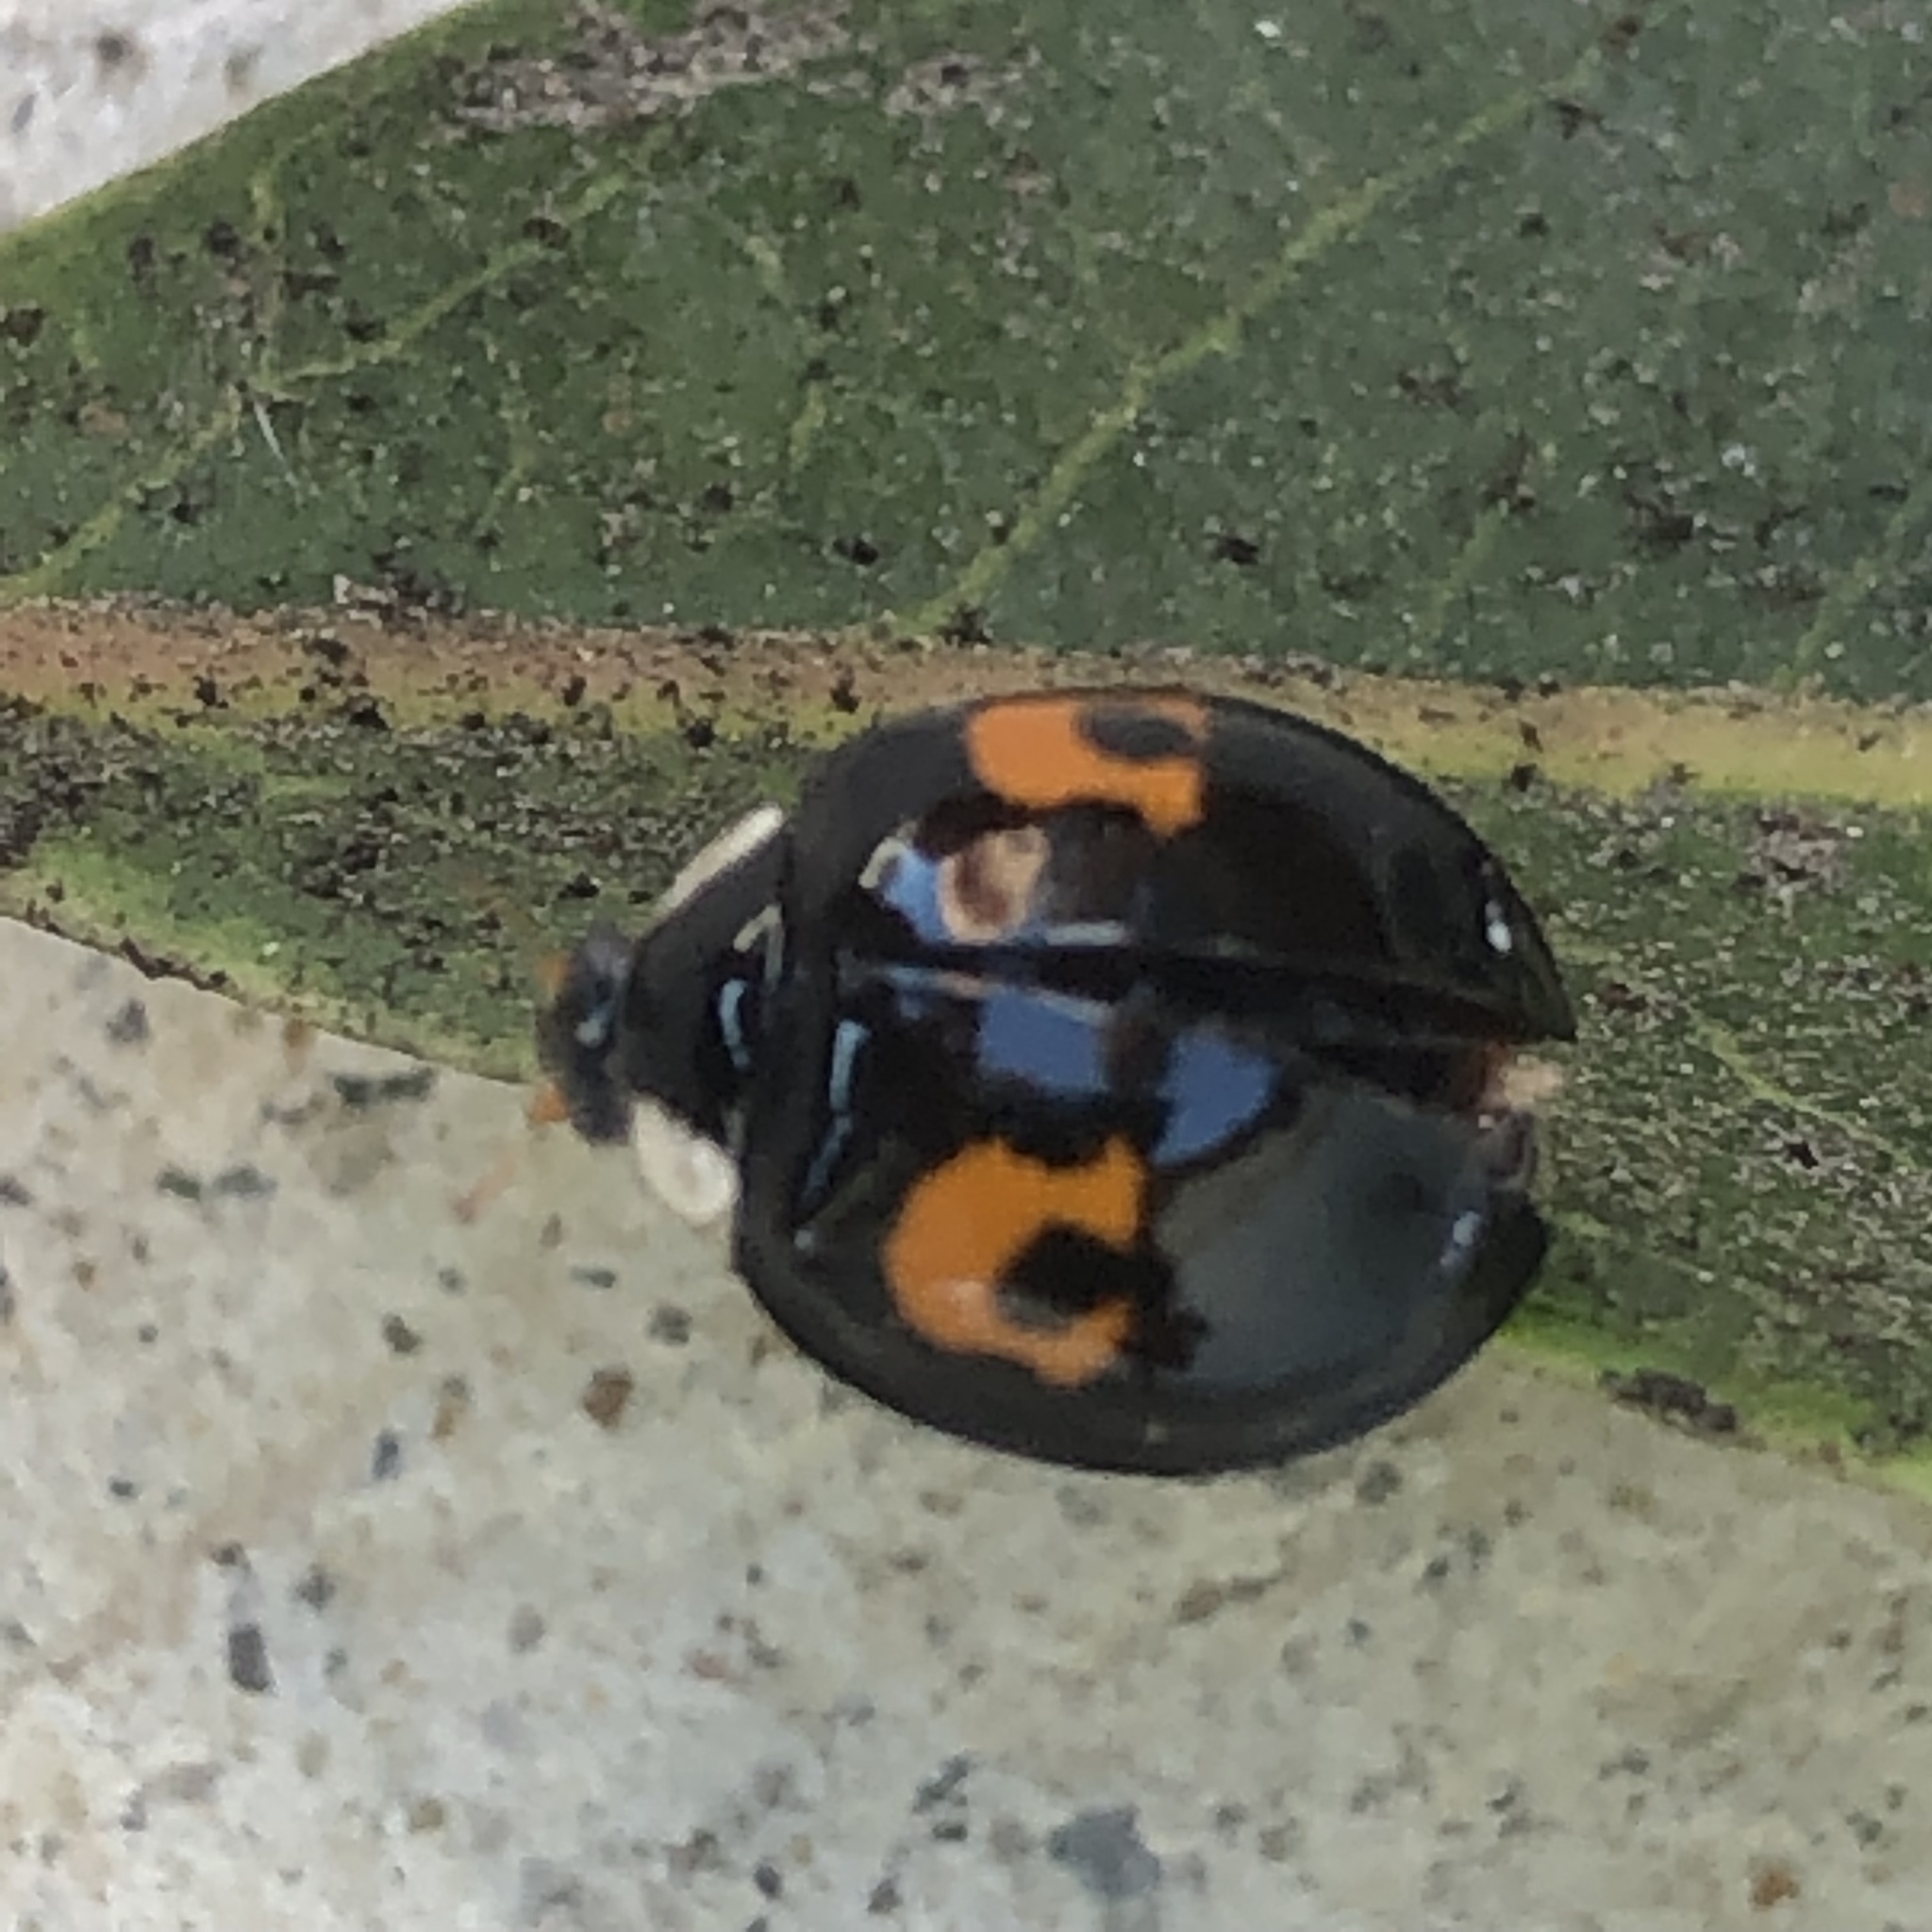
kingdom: Animalia
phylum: Arthropoda
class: Insecta
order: Coleoptera
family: Coccinellidae
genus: Harmonia
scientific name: Harmonia axyridis
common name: Harlequin ladybird
